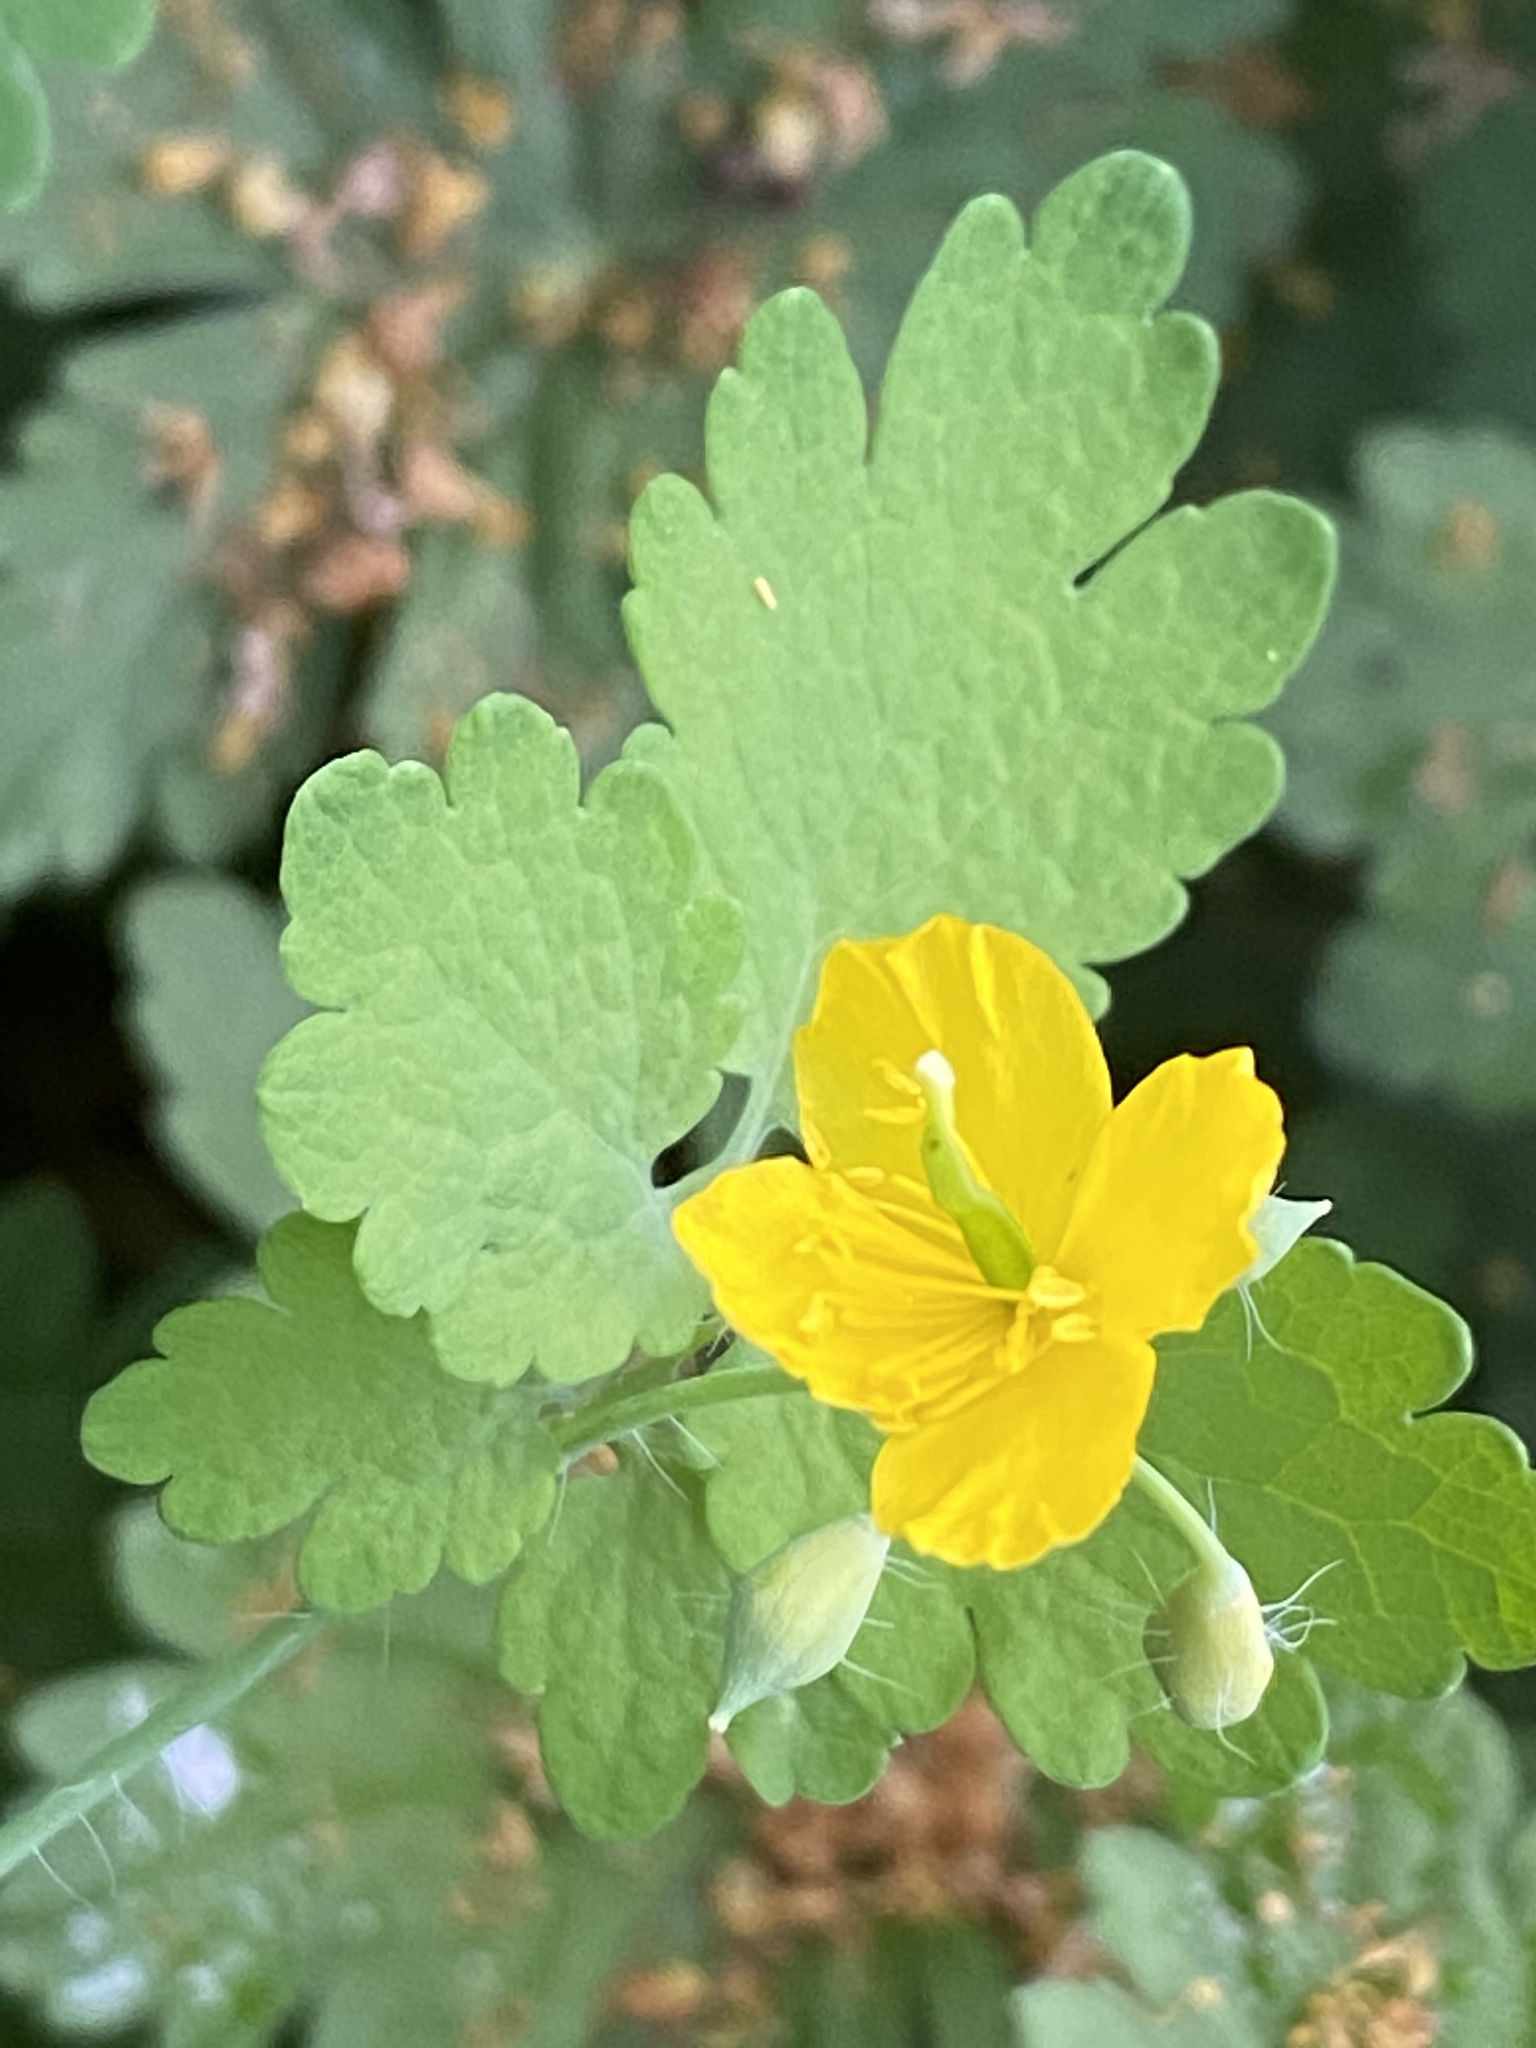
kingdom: Plantae
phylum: Tracheophyta
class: Magnoliopsida
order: Ranunculales
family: Papaveraceae
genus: Chelidonium
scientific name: Chelidonium majus
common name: Greater celandine
